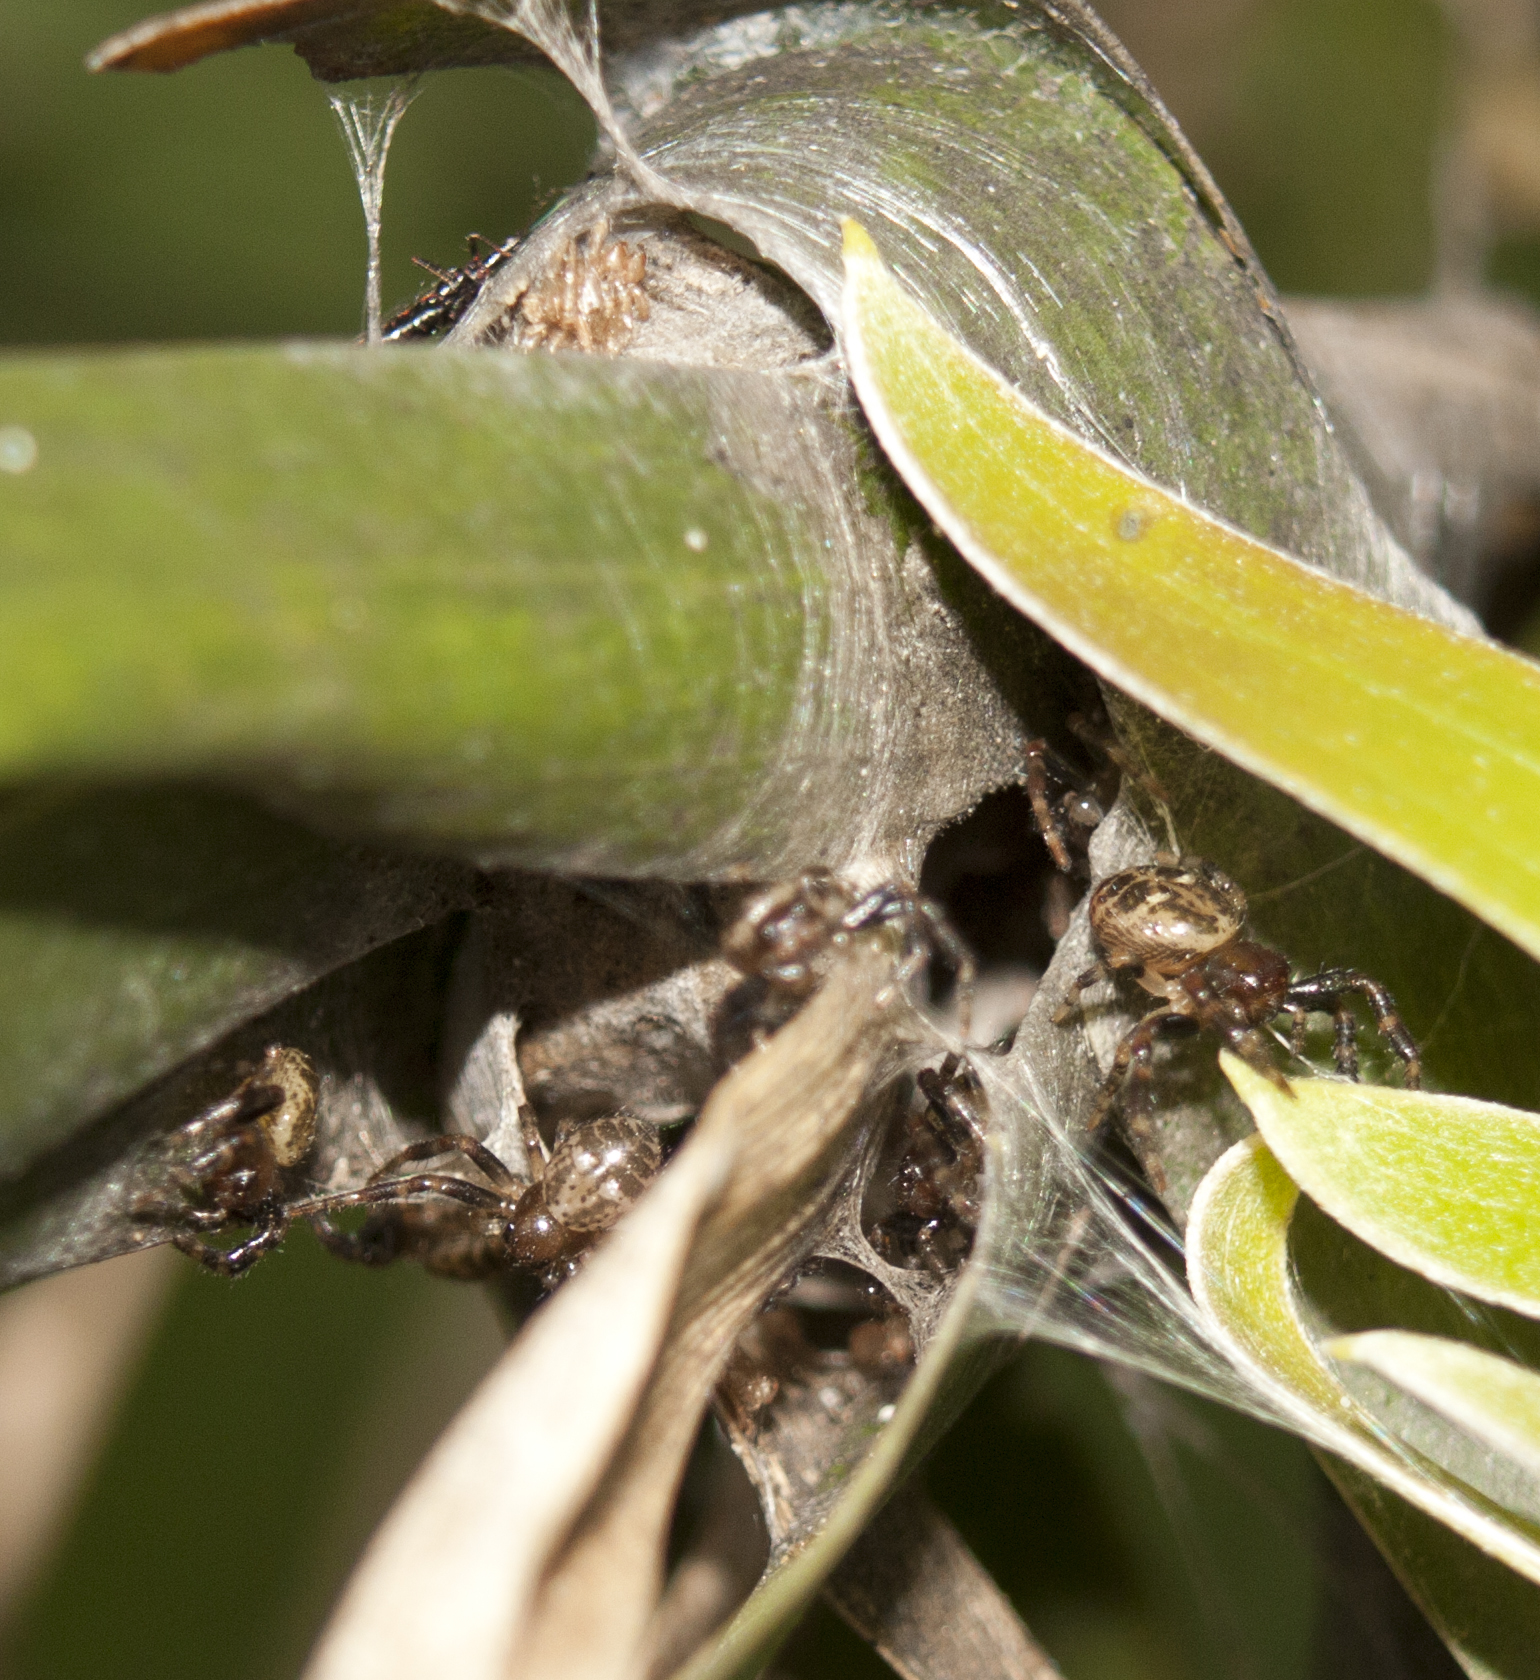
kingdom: Animalia
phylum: Arthropoda
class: Arachnida
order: Araneae
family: Thomisidae
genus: Xysticus
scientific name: Xysticus bimaculatus
